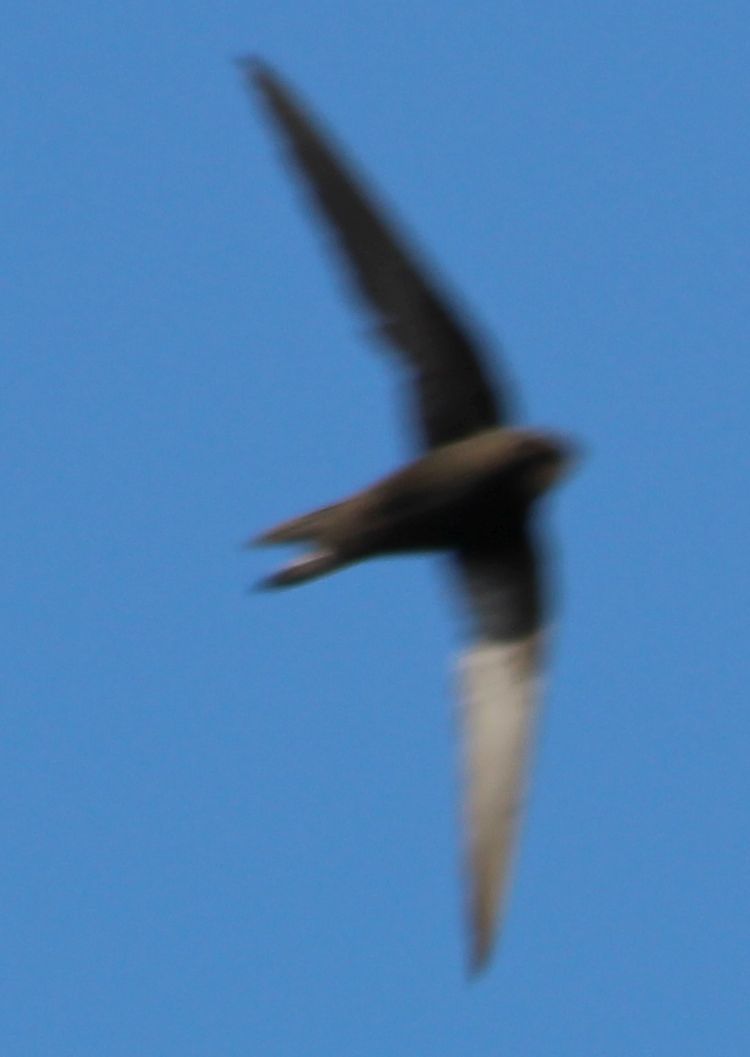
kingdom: Animalia
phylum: Chordata
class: Aves
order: Apodiformes
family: Apodidae
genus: Apus
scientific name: Apus apus
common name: Common swift
